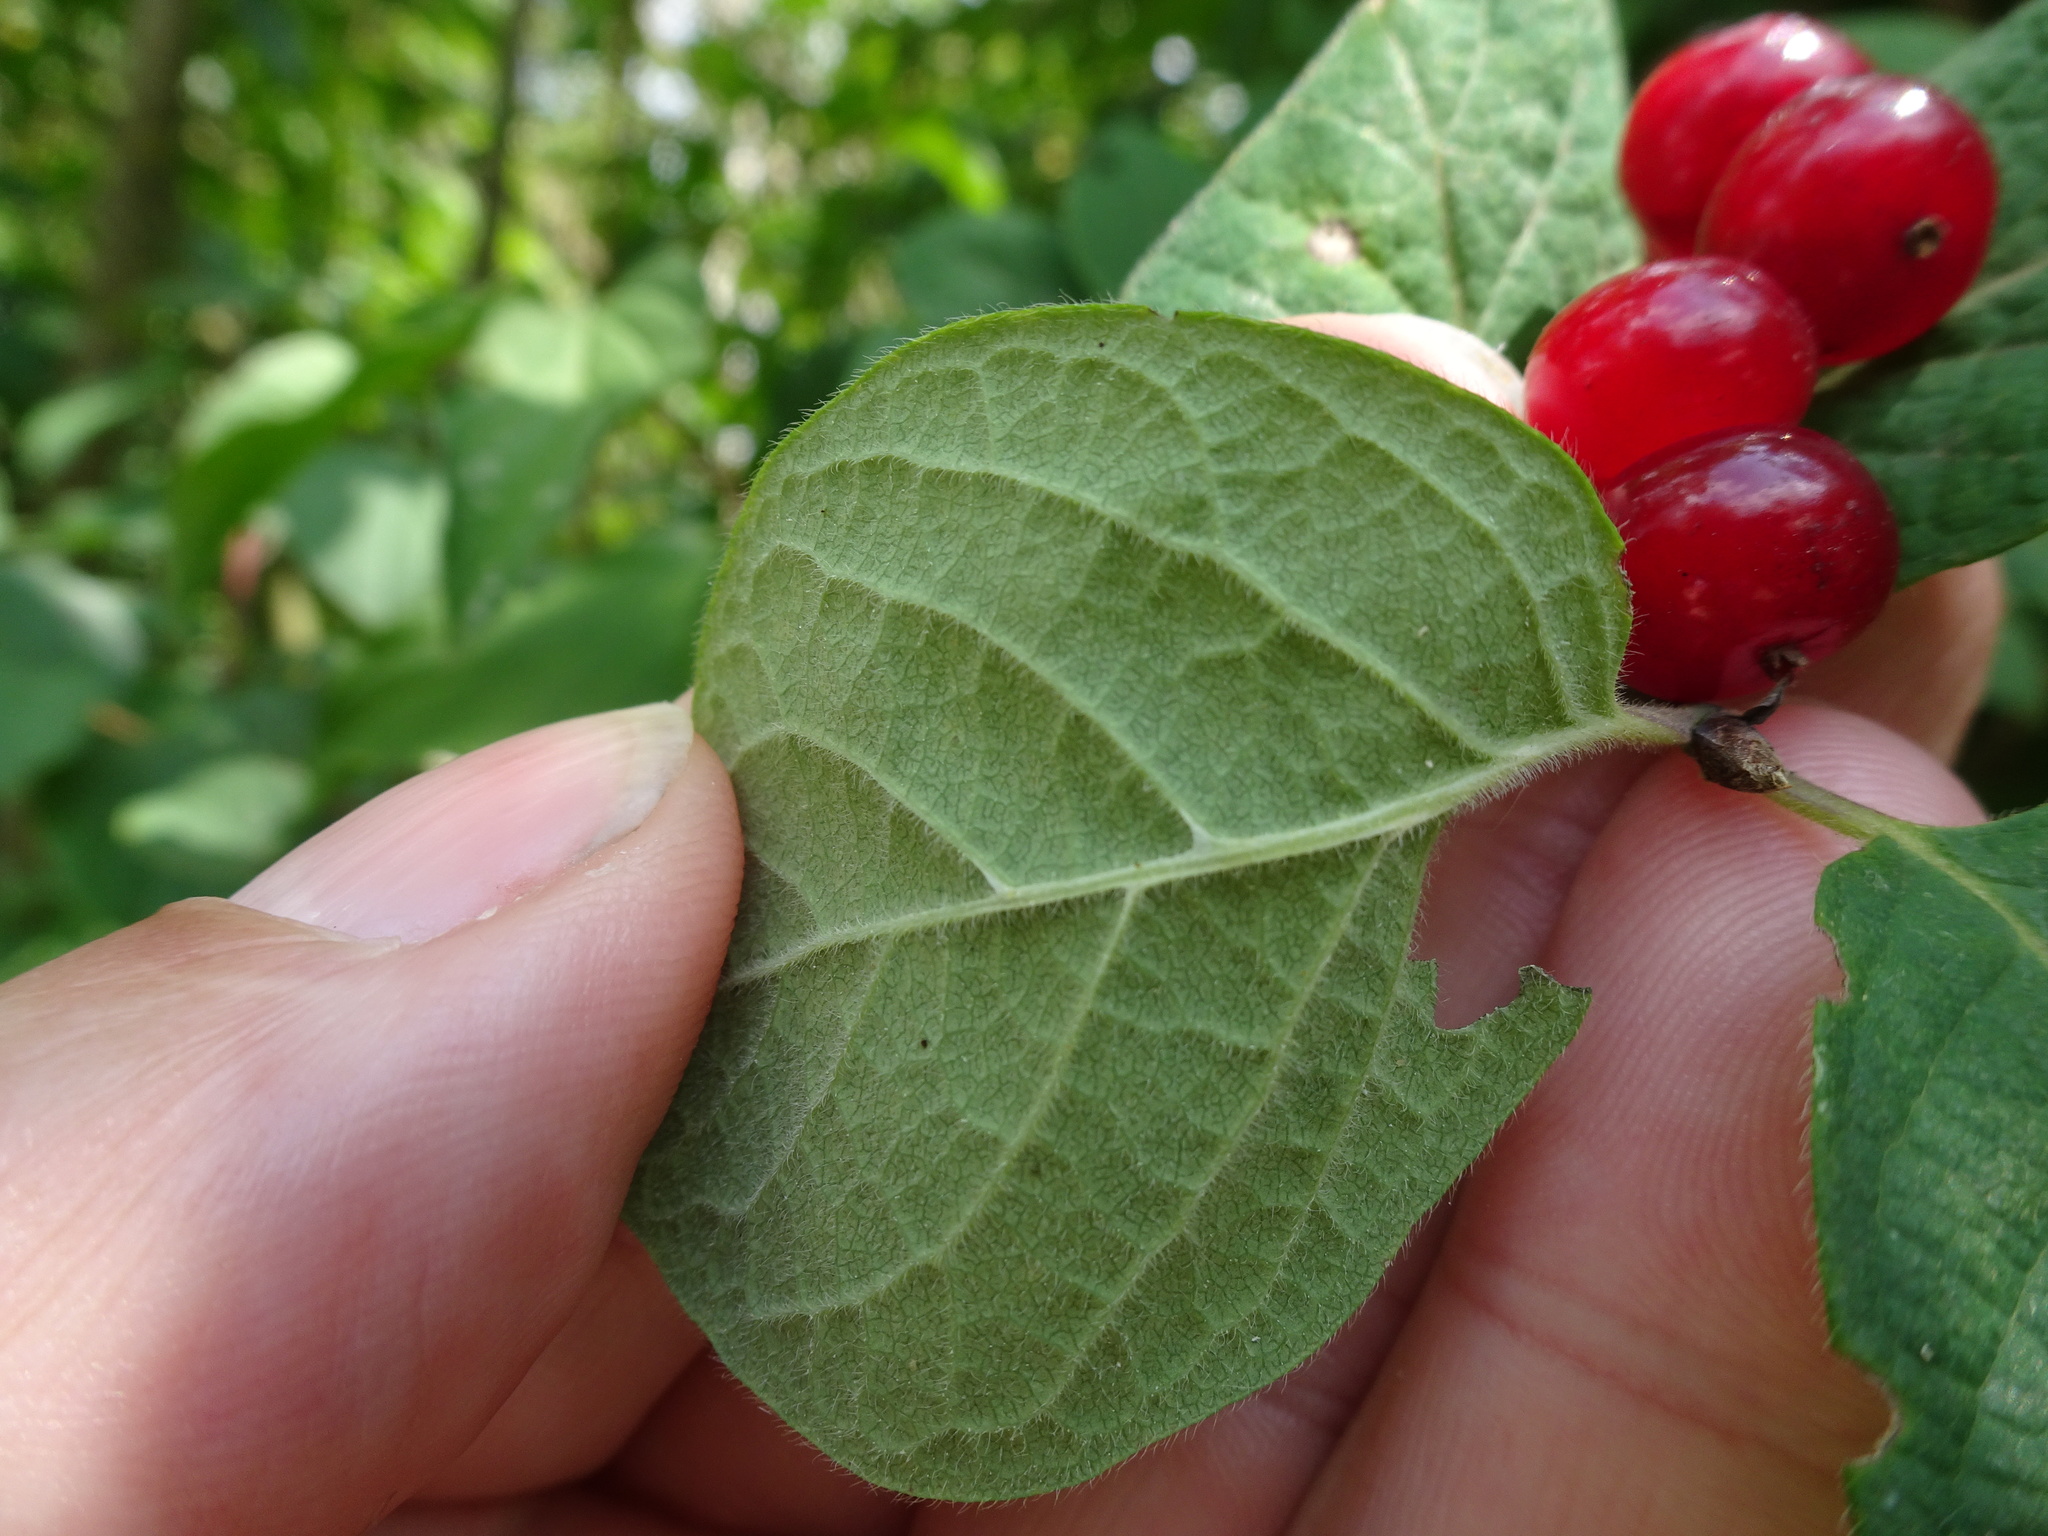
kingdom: Plantae
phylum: Tracheophyta
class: Magnoliopsida
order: Dipsacales
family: Caprifoliaceae
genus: Lonicera
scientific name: Lonicera xylosteum
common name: Fly honeysuckle
